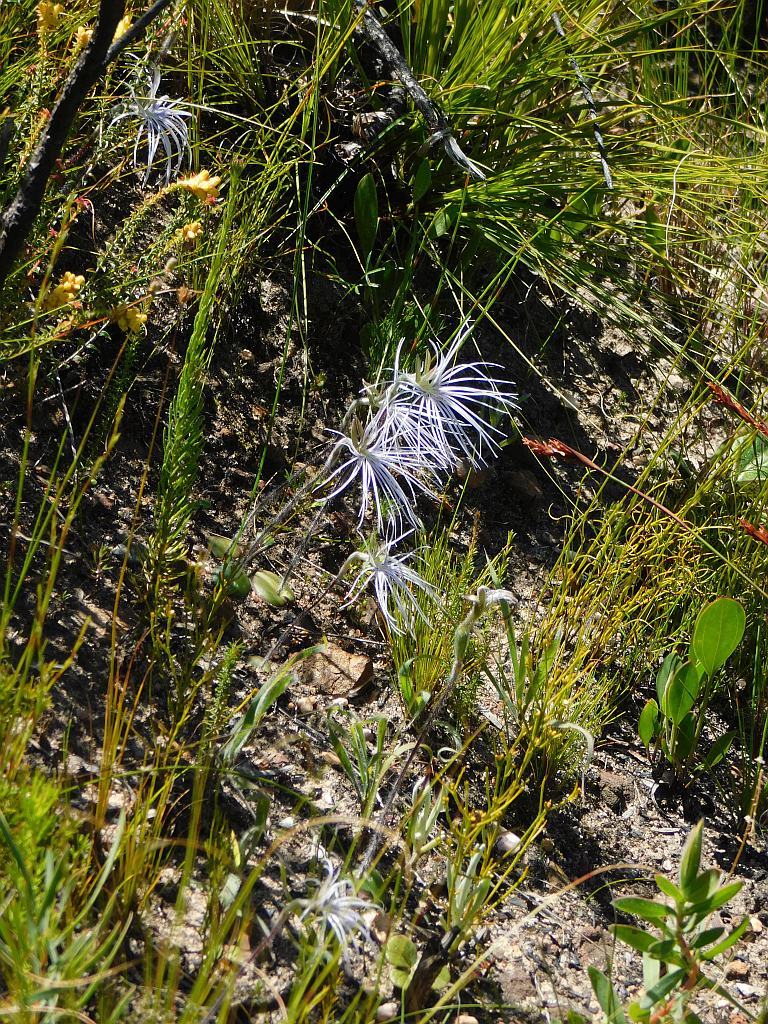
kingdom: Plantae
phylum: Tracheophyta
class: Liliopsida
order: Asparagales
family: Orchidaceae
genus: Holothrix
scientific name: Holothrix burmanniana
